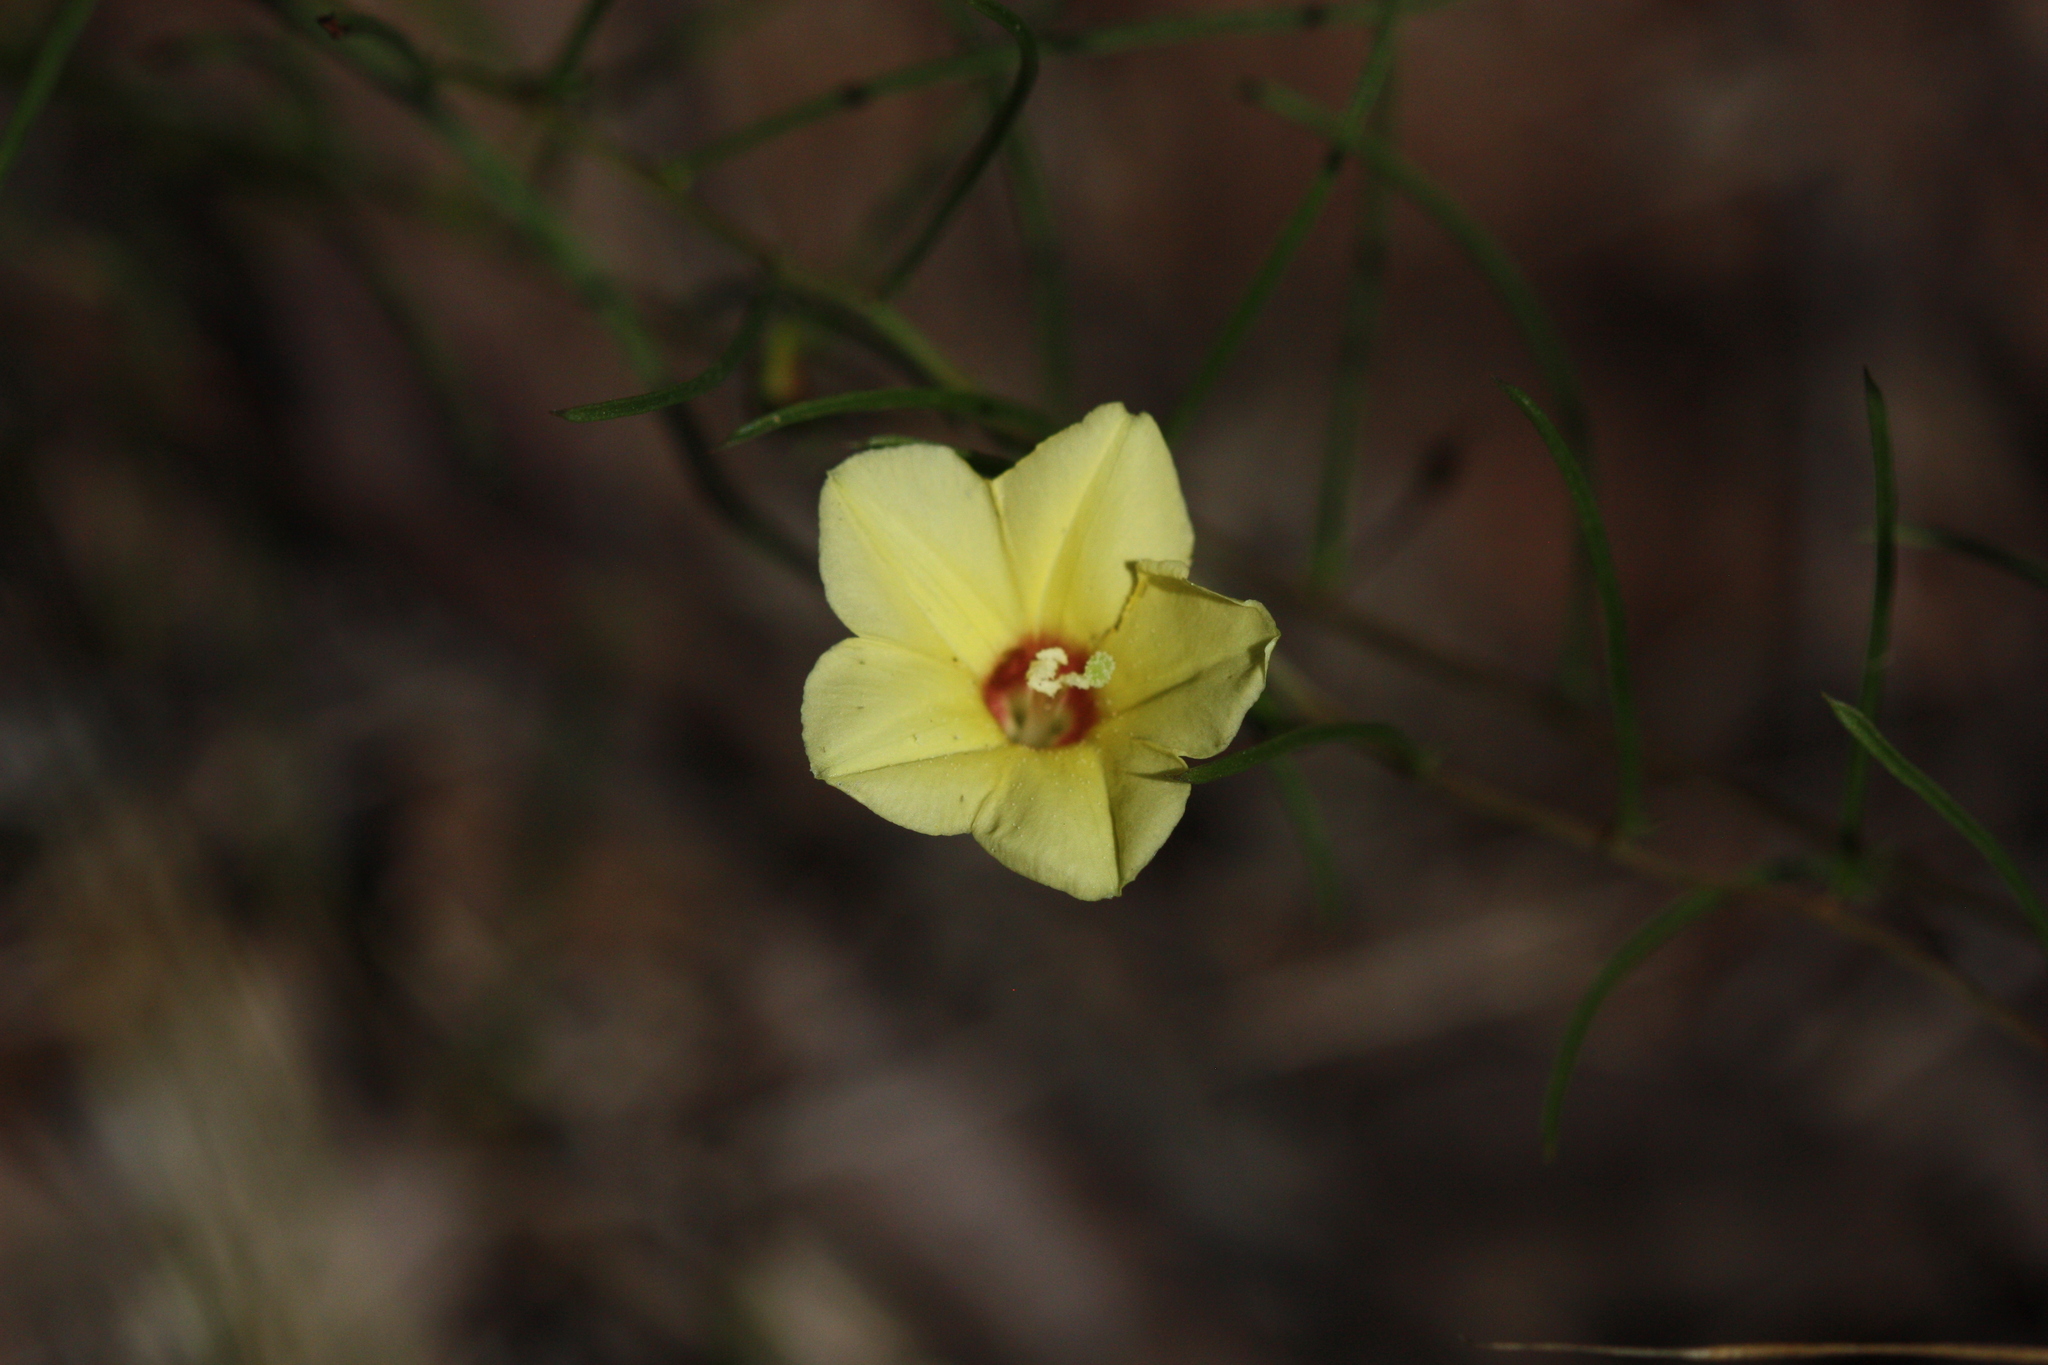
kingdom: Plantae
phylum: Tracheophyta
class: Magnoliopsida
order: Solanales
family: Convolvulaceae
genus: Xenostegia
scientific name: Xenostegia tridentata
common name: African morningvine
